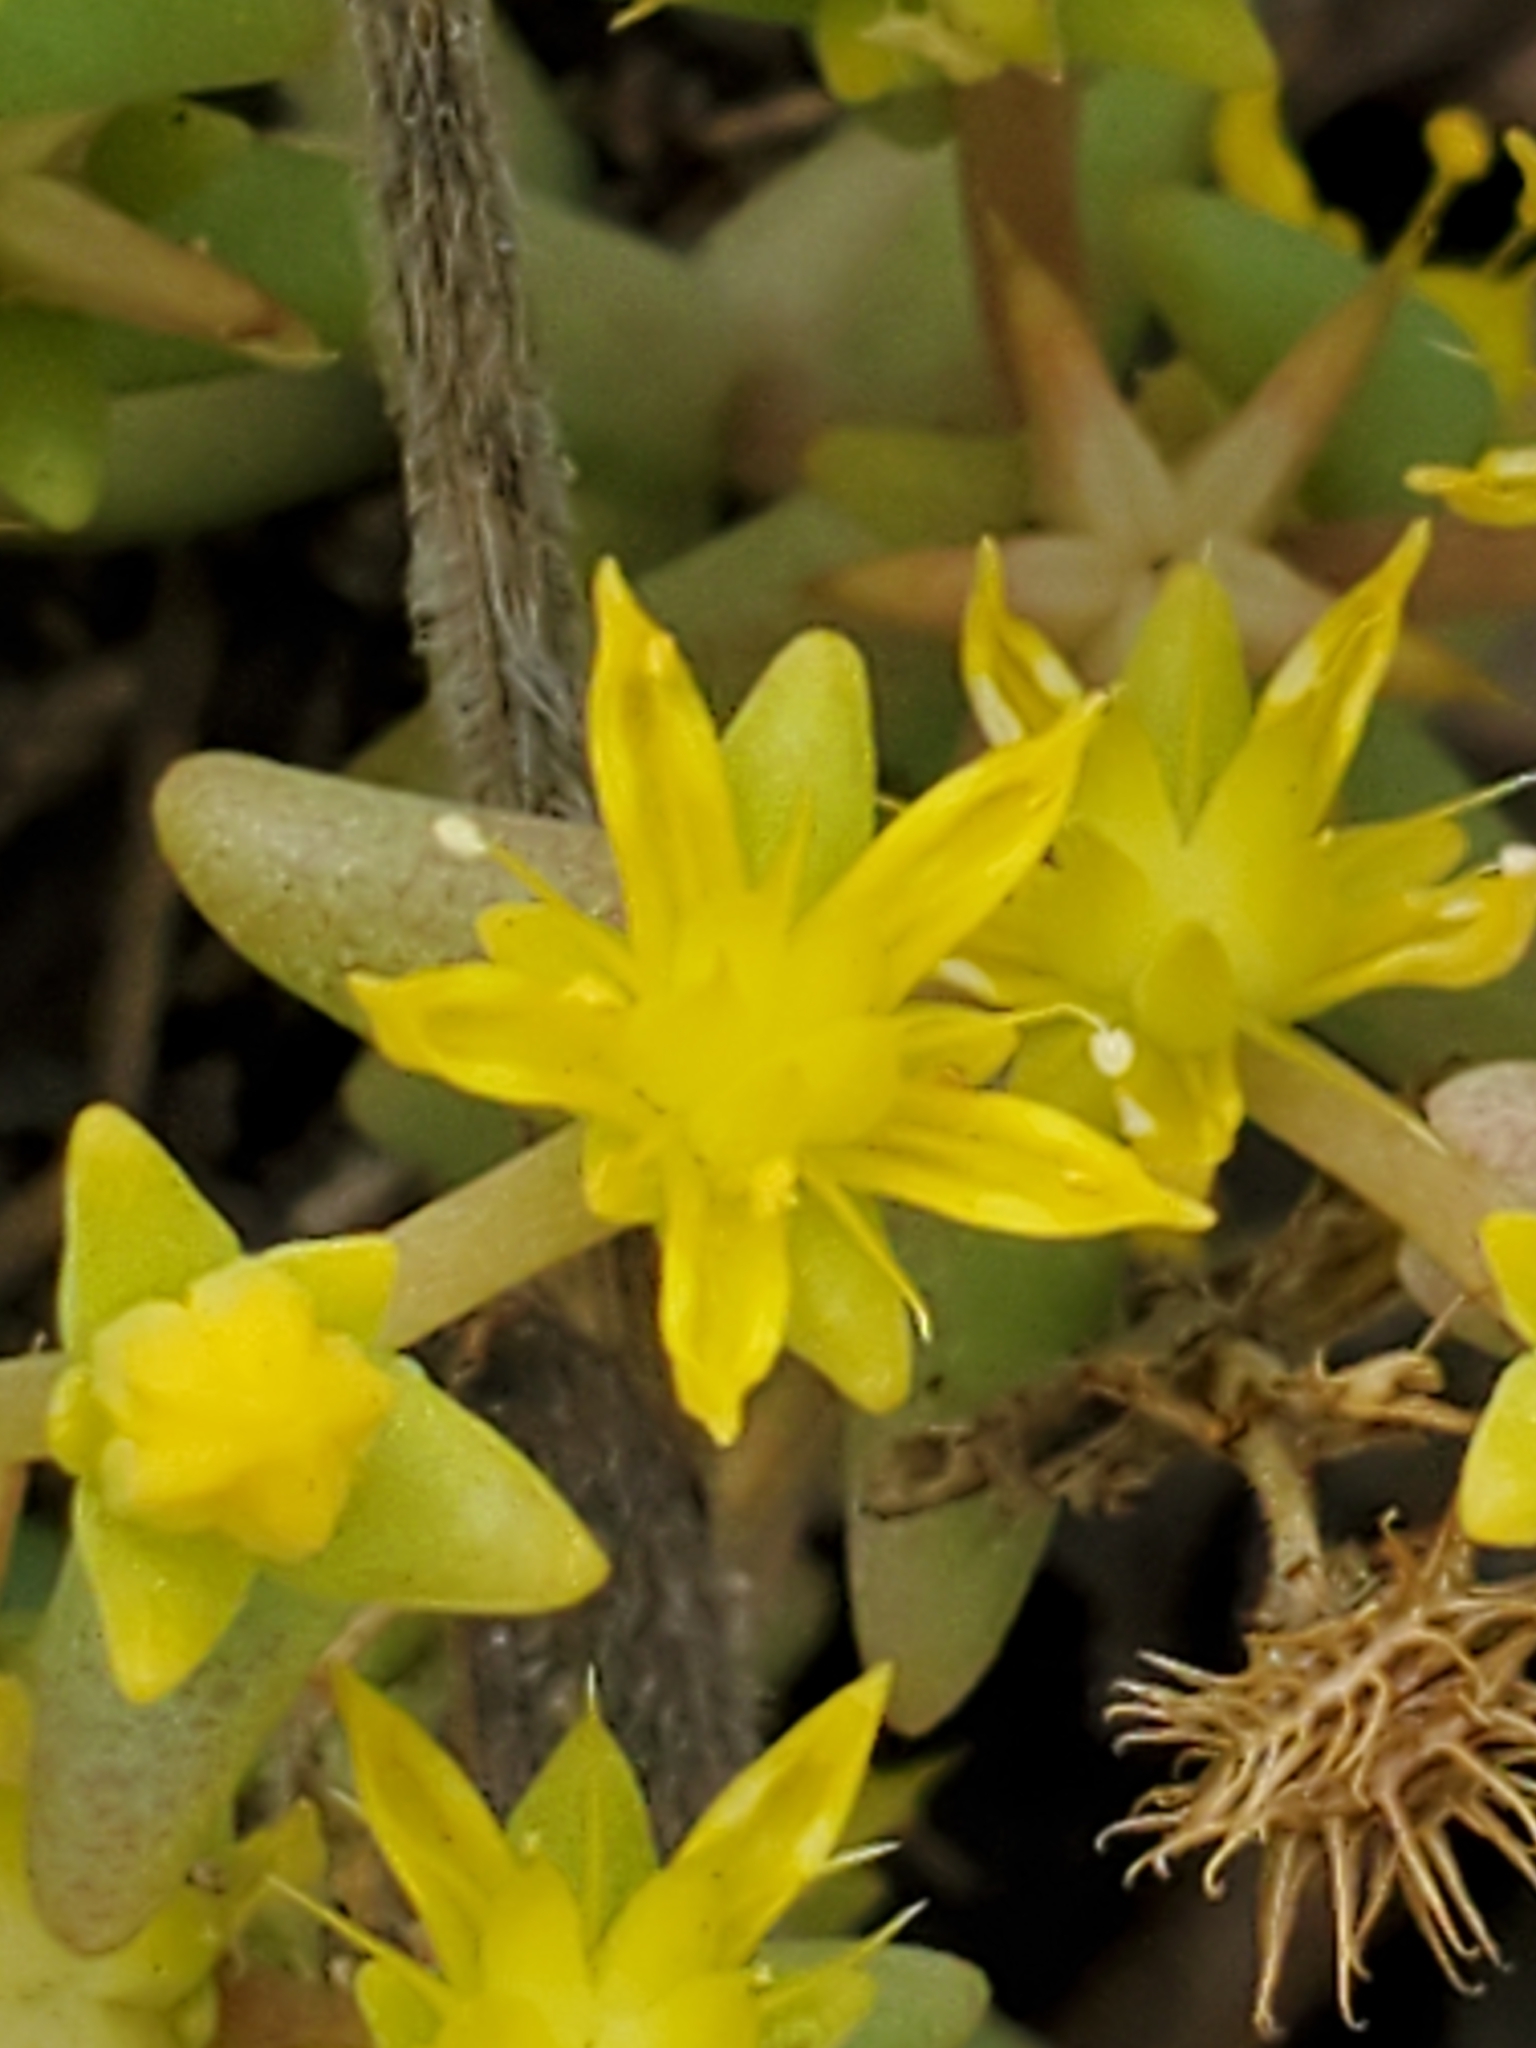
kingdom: Plantae
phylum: Tracheophyta
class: Magnoliopsida
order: Saxifragales
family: Crassulaceae
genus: Sedum
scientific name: Sedum nuttallii
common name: Yellow stonecrop
